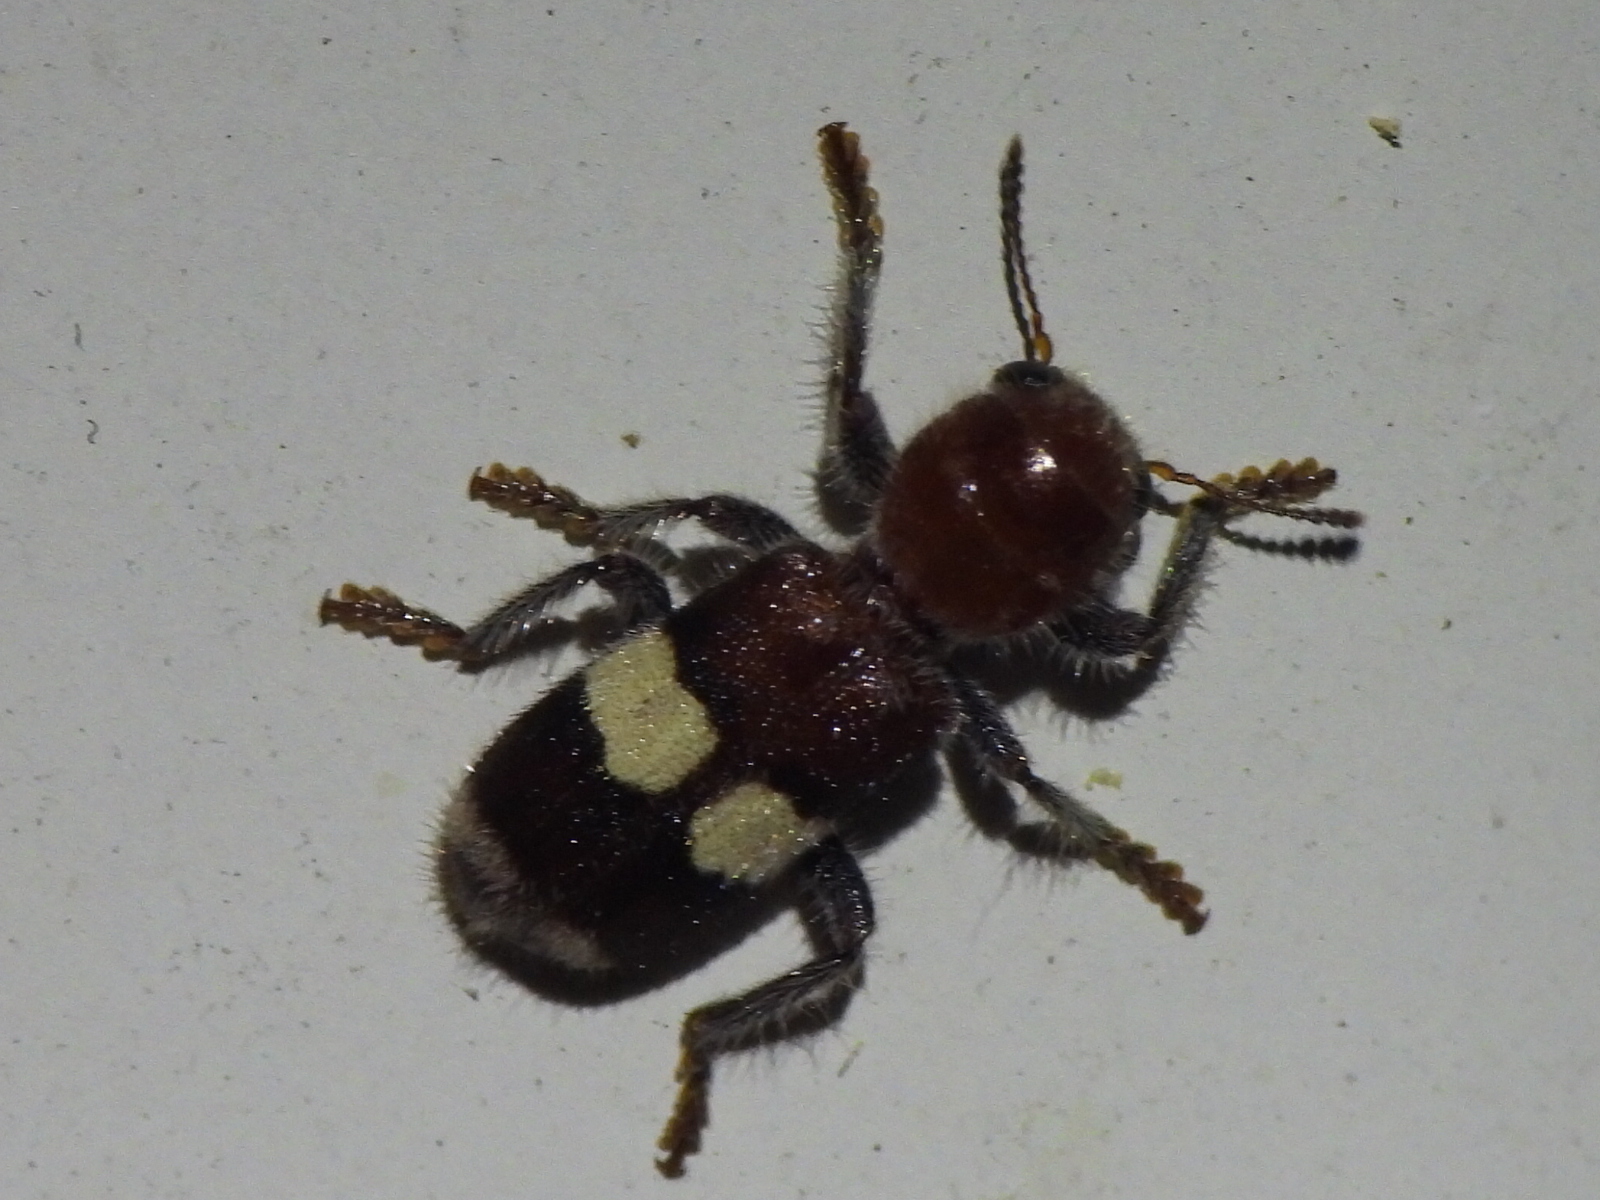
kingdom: Animalia
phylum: Arthropoda
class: Insecta
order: Coleoptera
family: Cleridae
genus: Enoclerus
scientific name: Enoclerus quadrisignatus
